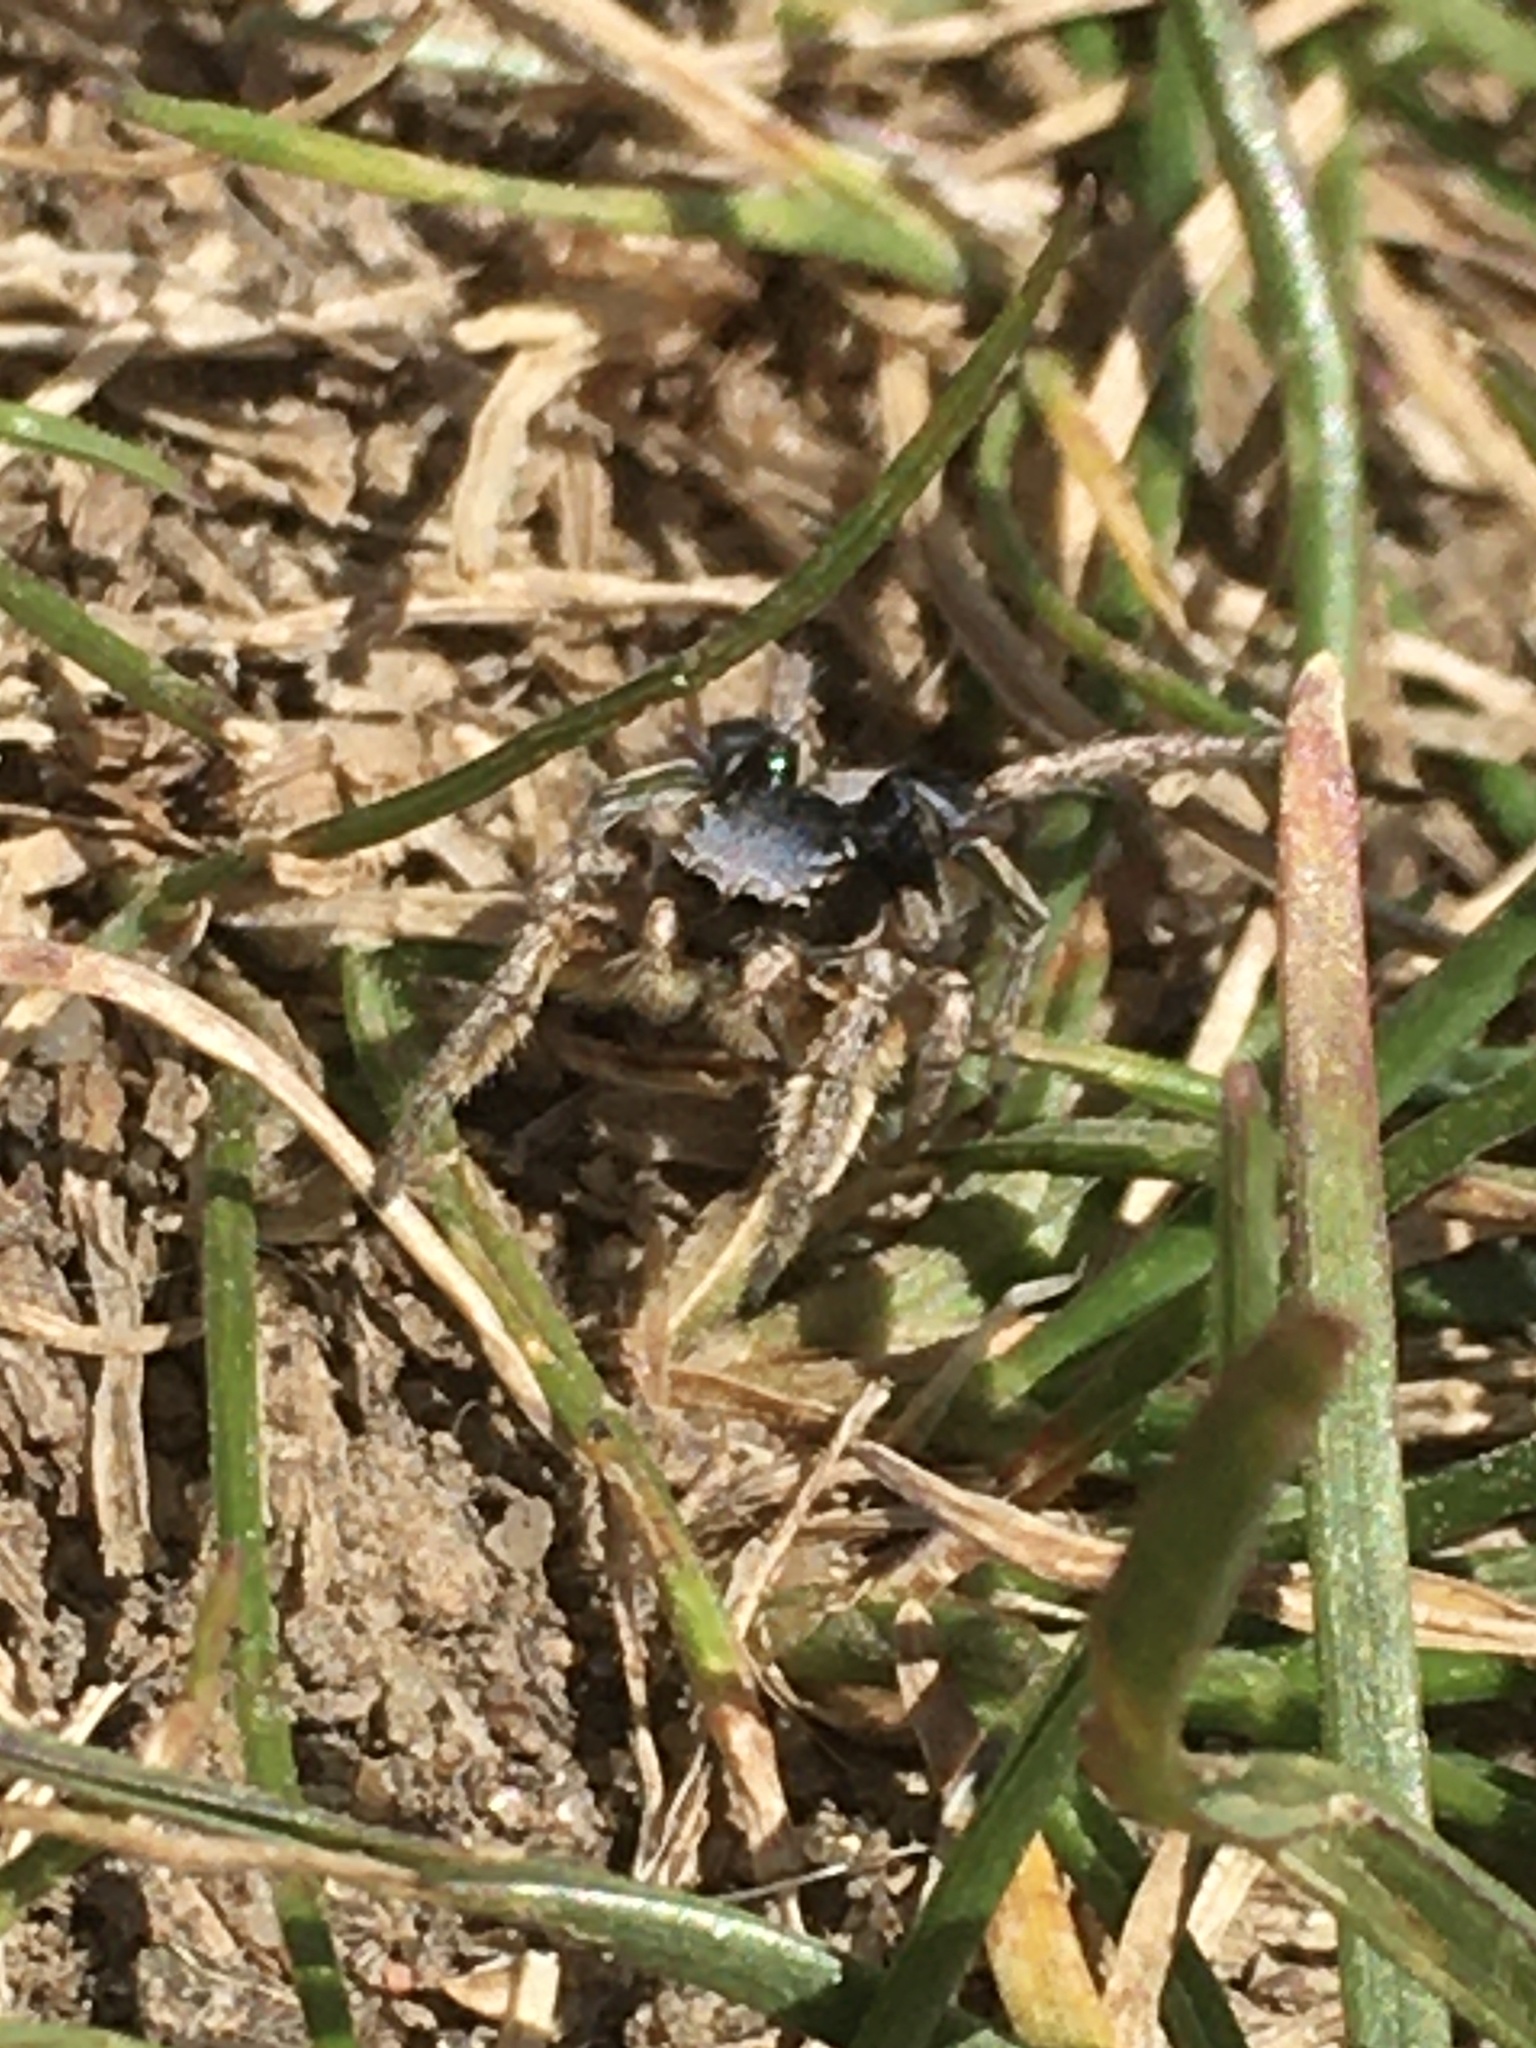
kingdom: Animalia
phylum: Arthropoda
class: Arachnida
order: Araneae
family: Salticidae
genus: Habronattus
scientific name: Habronattus captiosus
